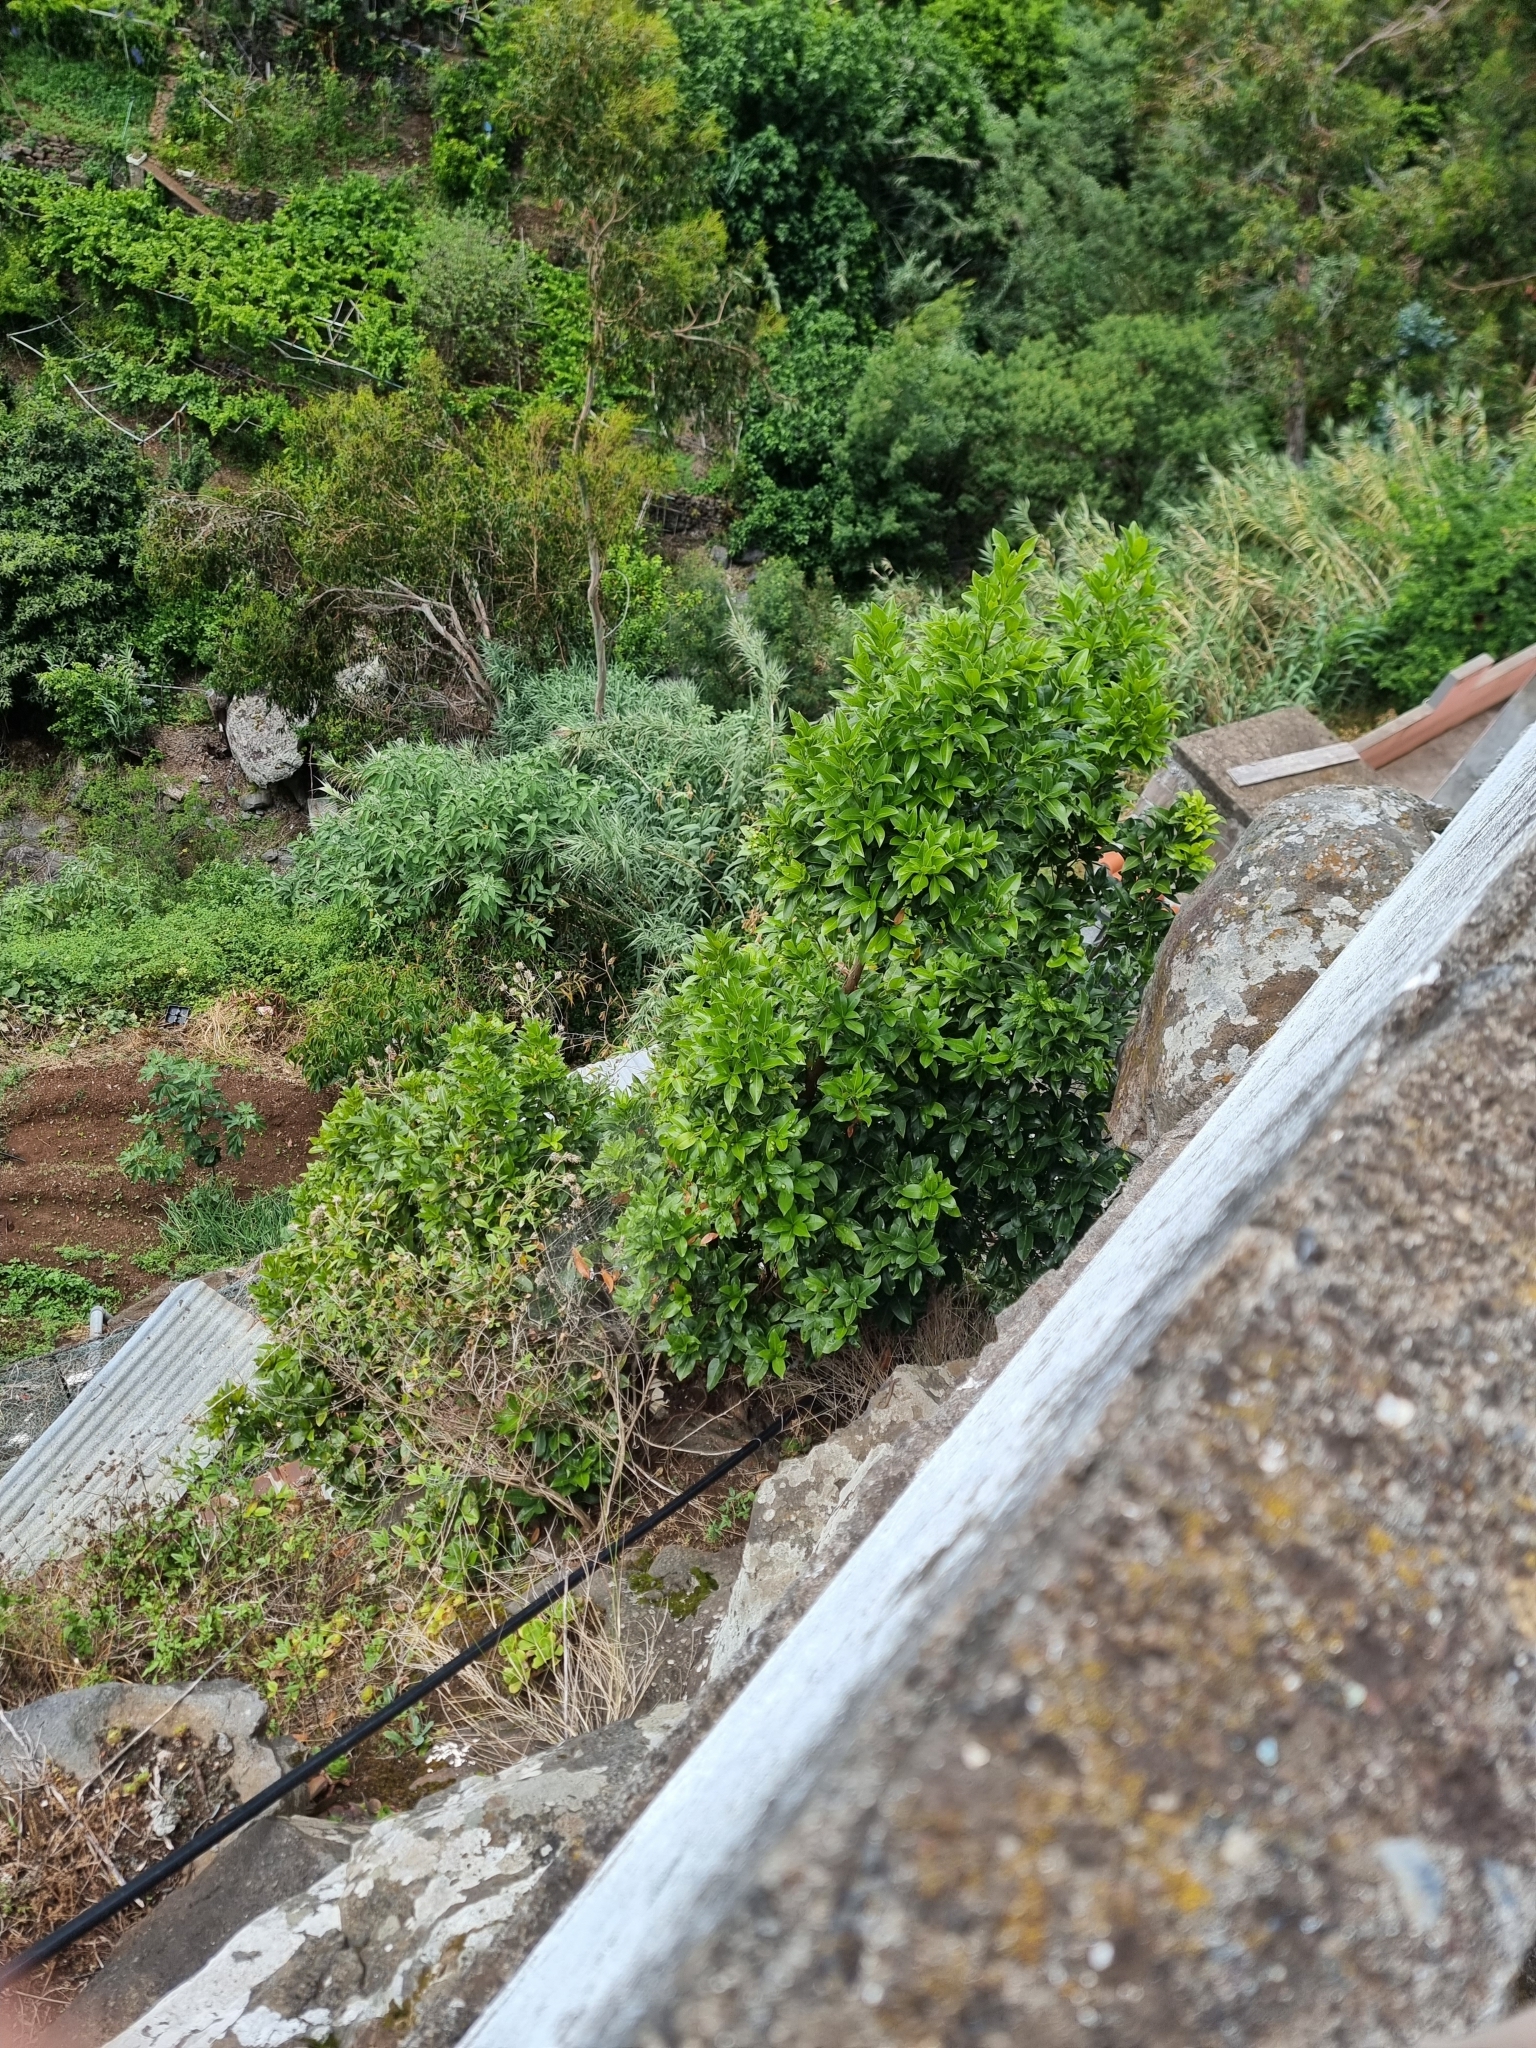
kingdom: Plantae
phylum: Tracheophyta
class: Magnoliopsida
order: Laurales
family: Lauraceae
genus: Apollonias
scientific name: Apollonias barbujana
